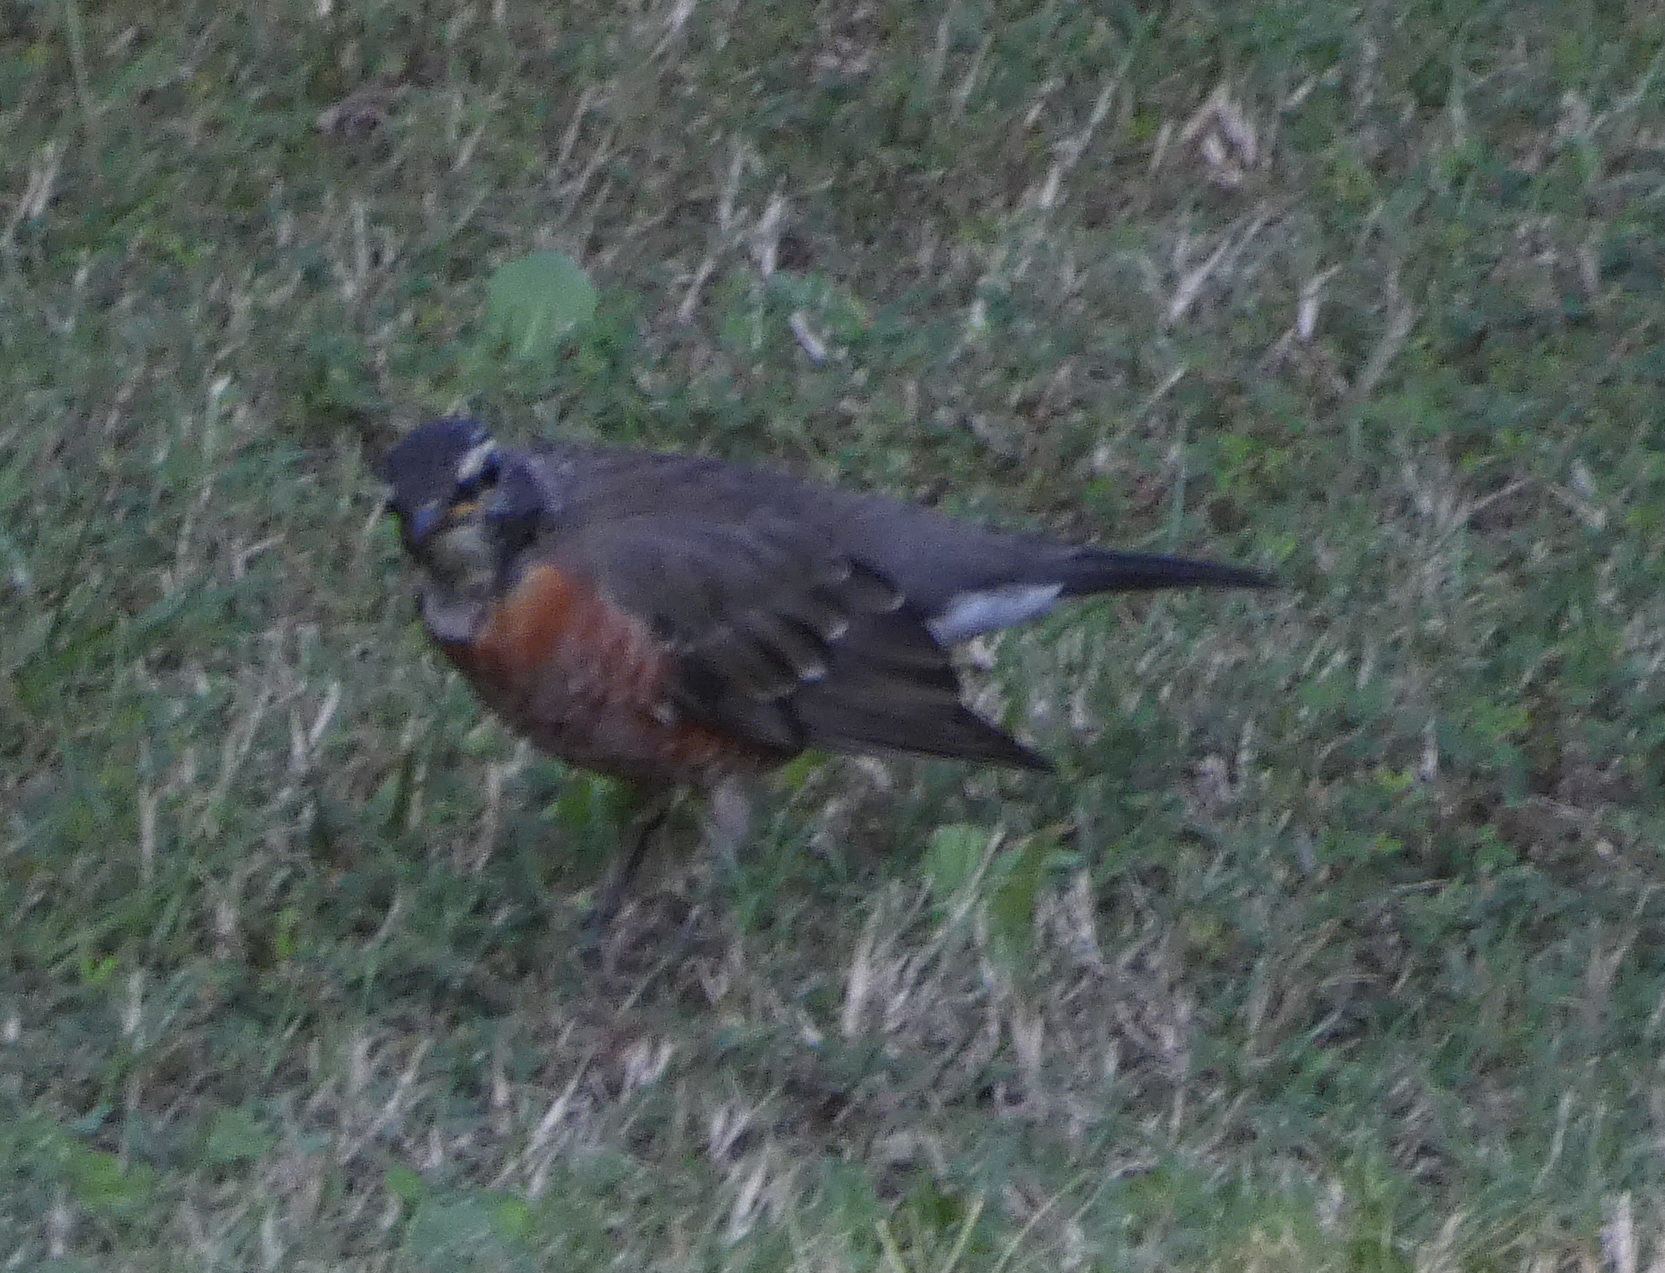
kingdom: Animalia
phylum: Chordata
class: Aves
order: Passeriformes
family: Turdidae
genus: Turdus
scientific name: Turdus migratorius
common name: American robin
